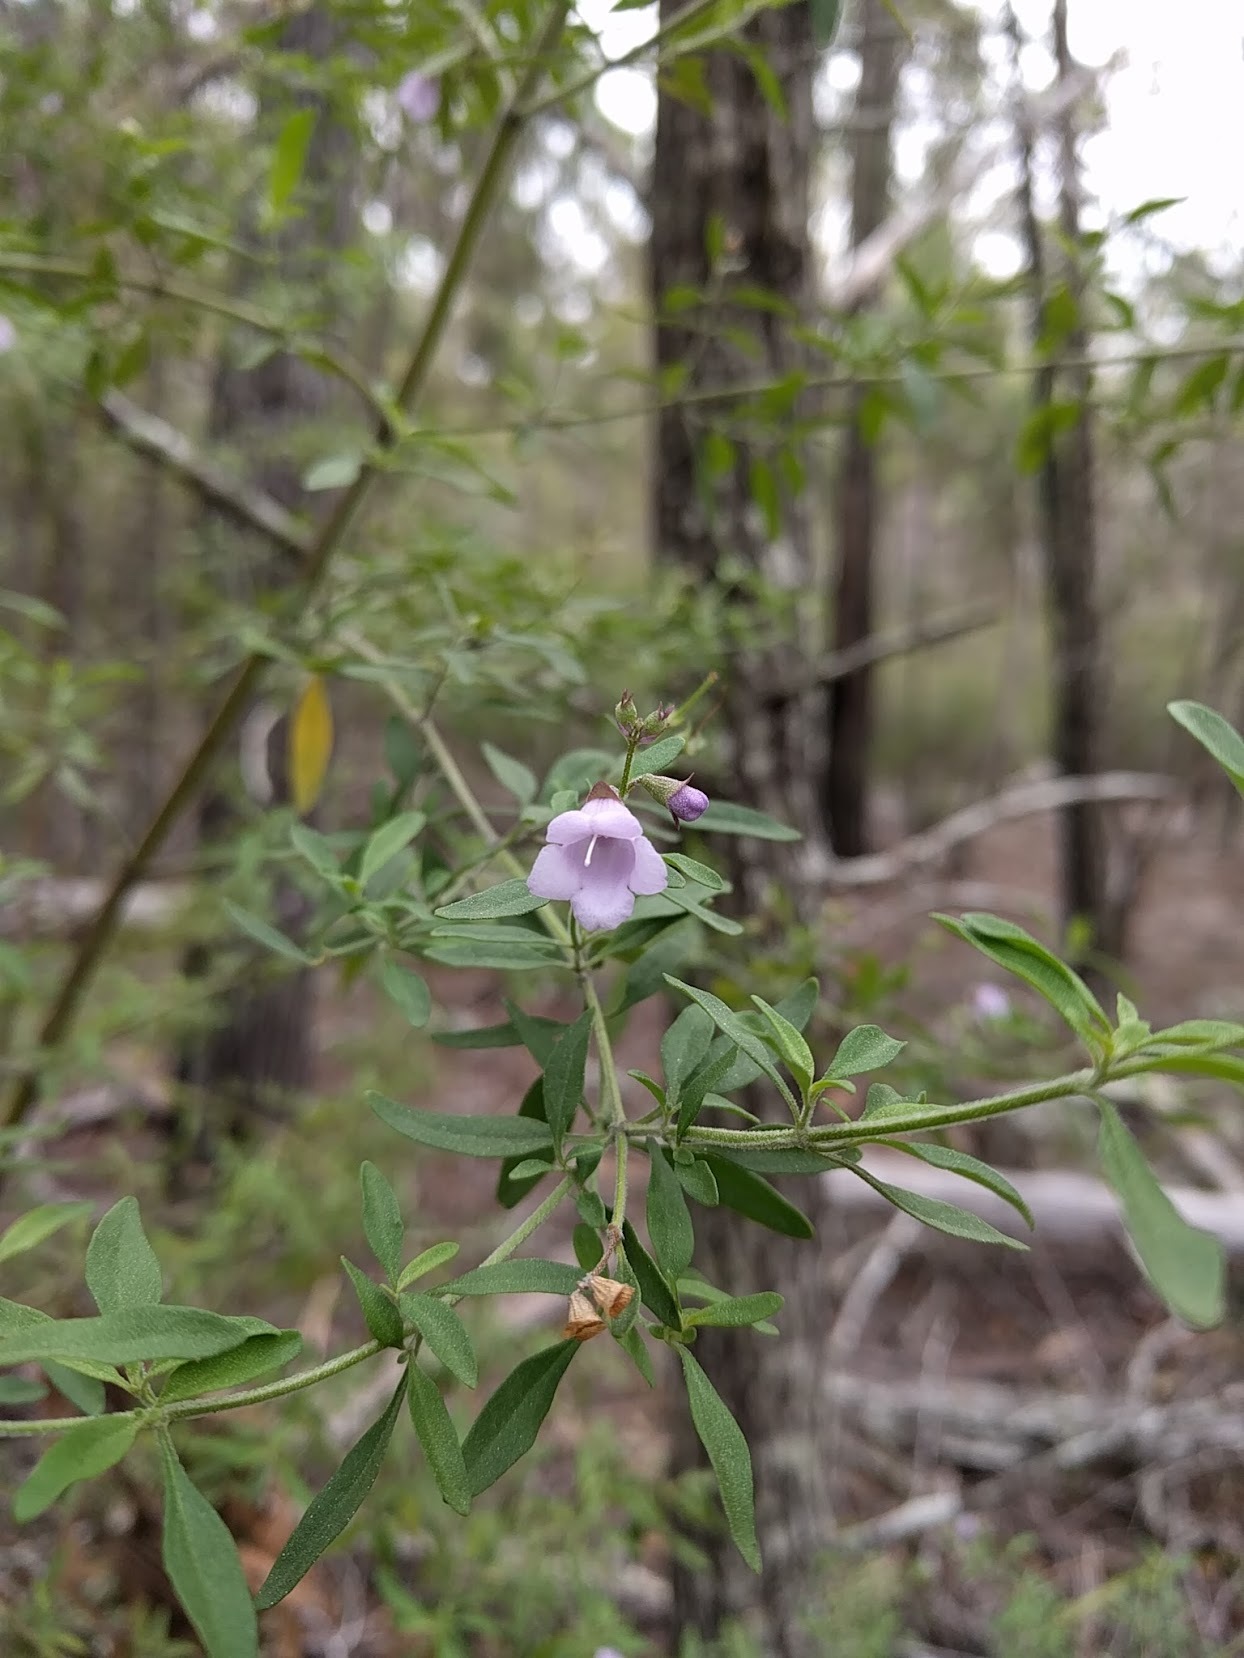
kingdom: Plantae
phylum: Tracheophyta
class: Magnoliopsida
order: Lamiales
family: Lamiaceae
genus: Prostanthera
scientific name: Prostanthera ovalifolia
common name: Purple mintbush
